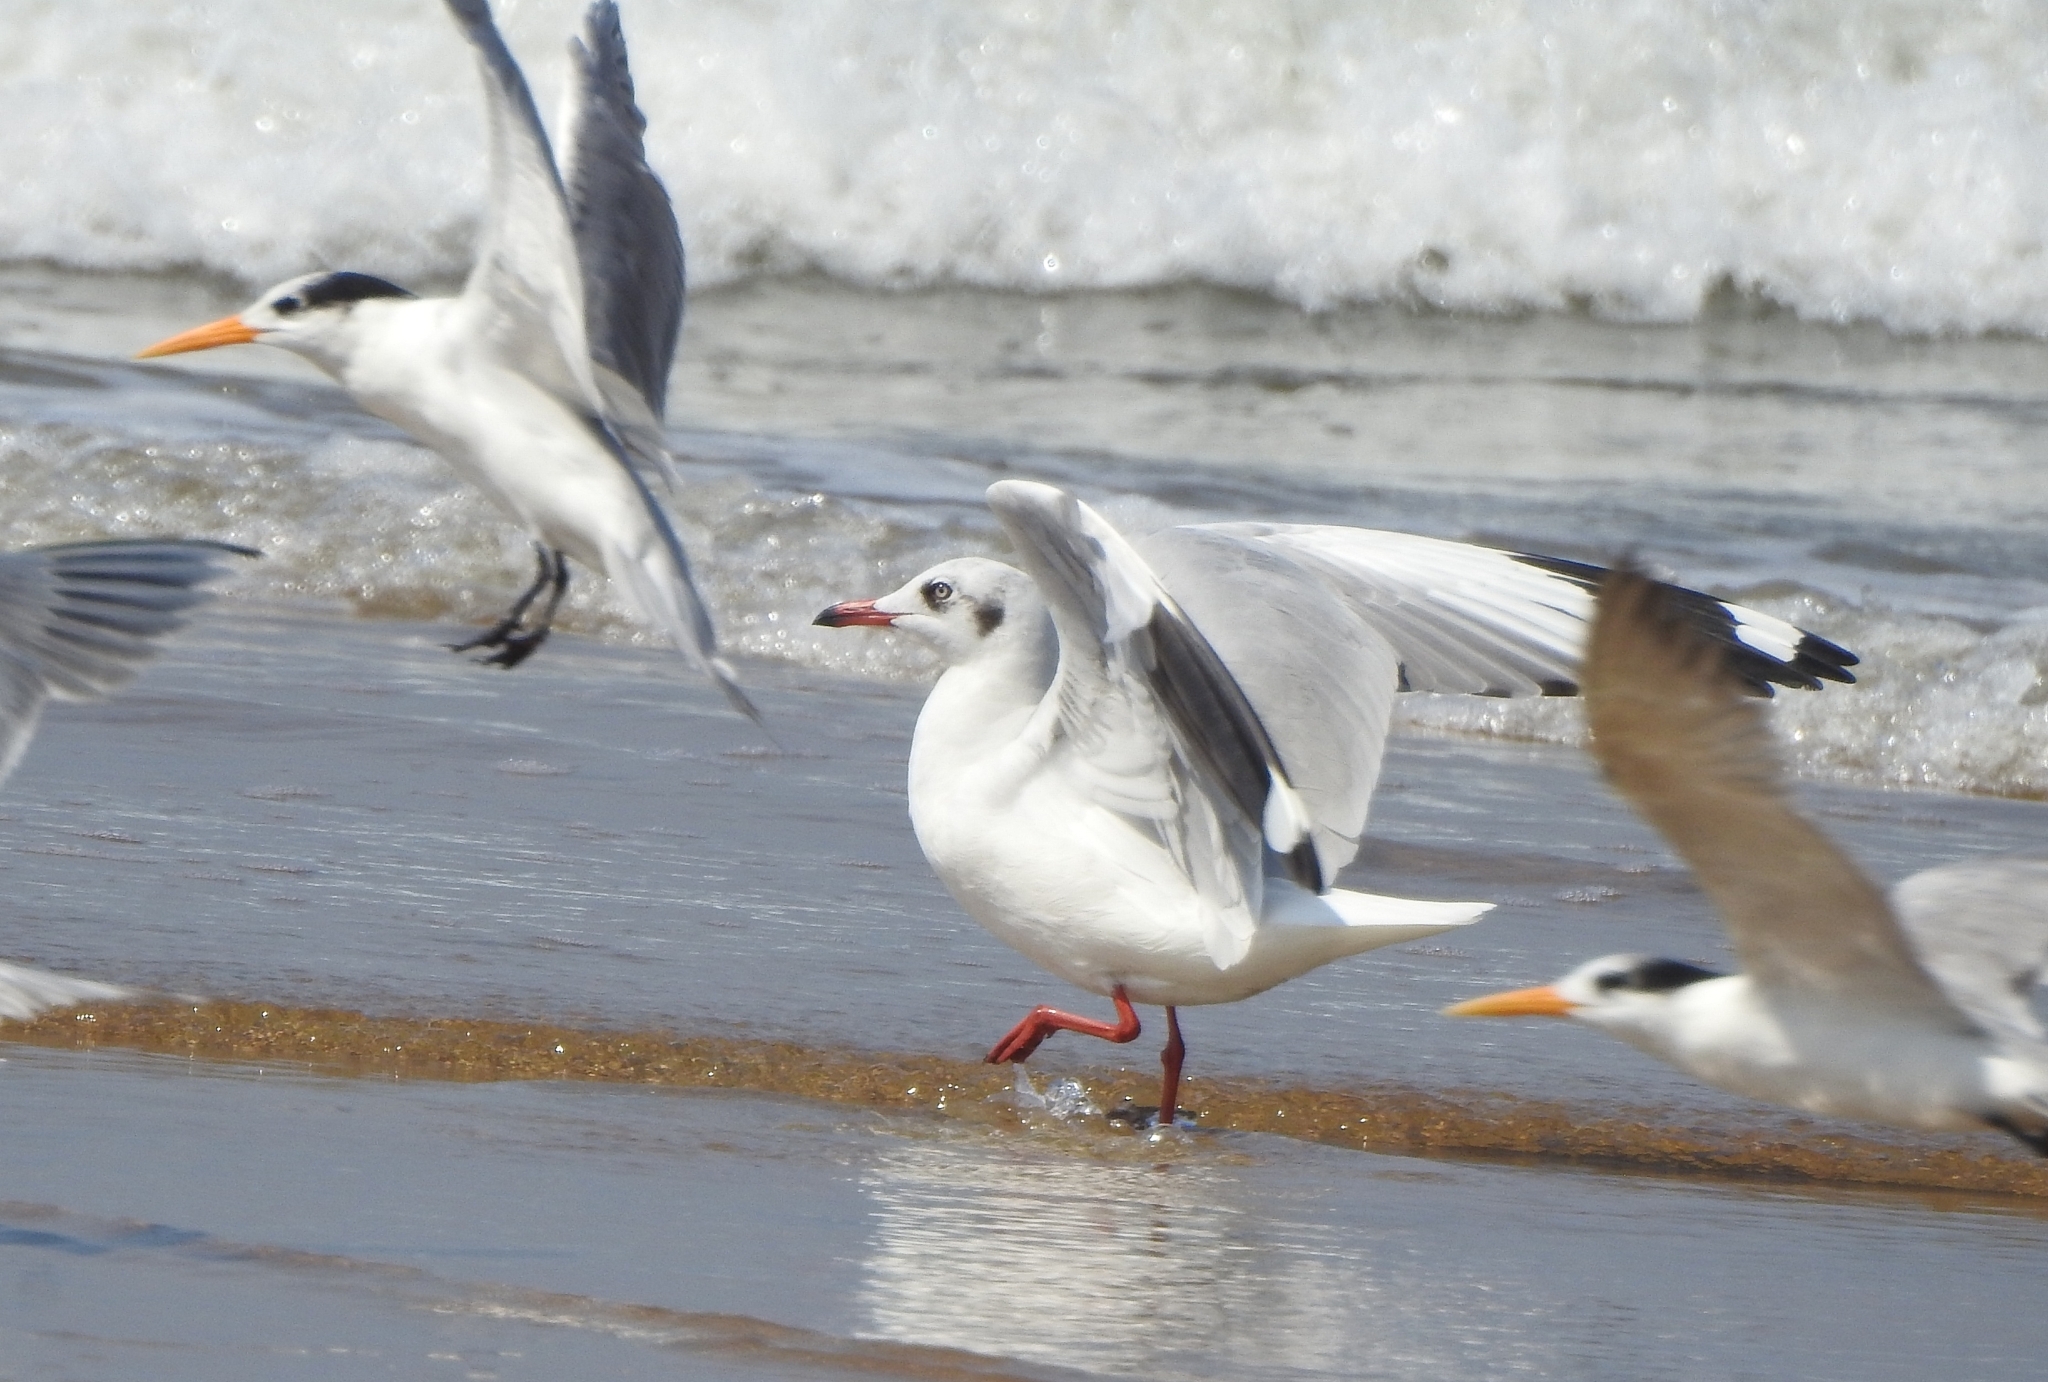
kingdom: Animalia
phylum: Chordata
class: Aves
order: Charadriiformes
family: Laridae
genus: Chroicocephalus
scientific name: Chroicocephalus brunnicephalus
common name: Brown-headed gull
